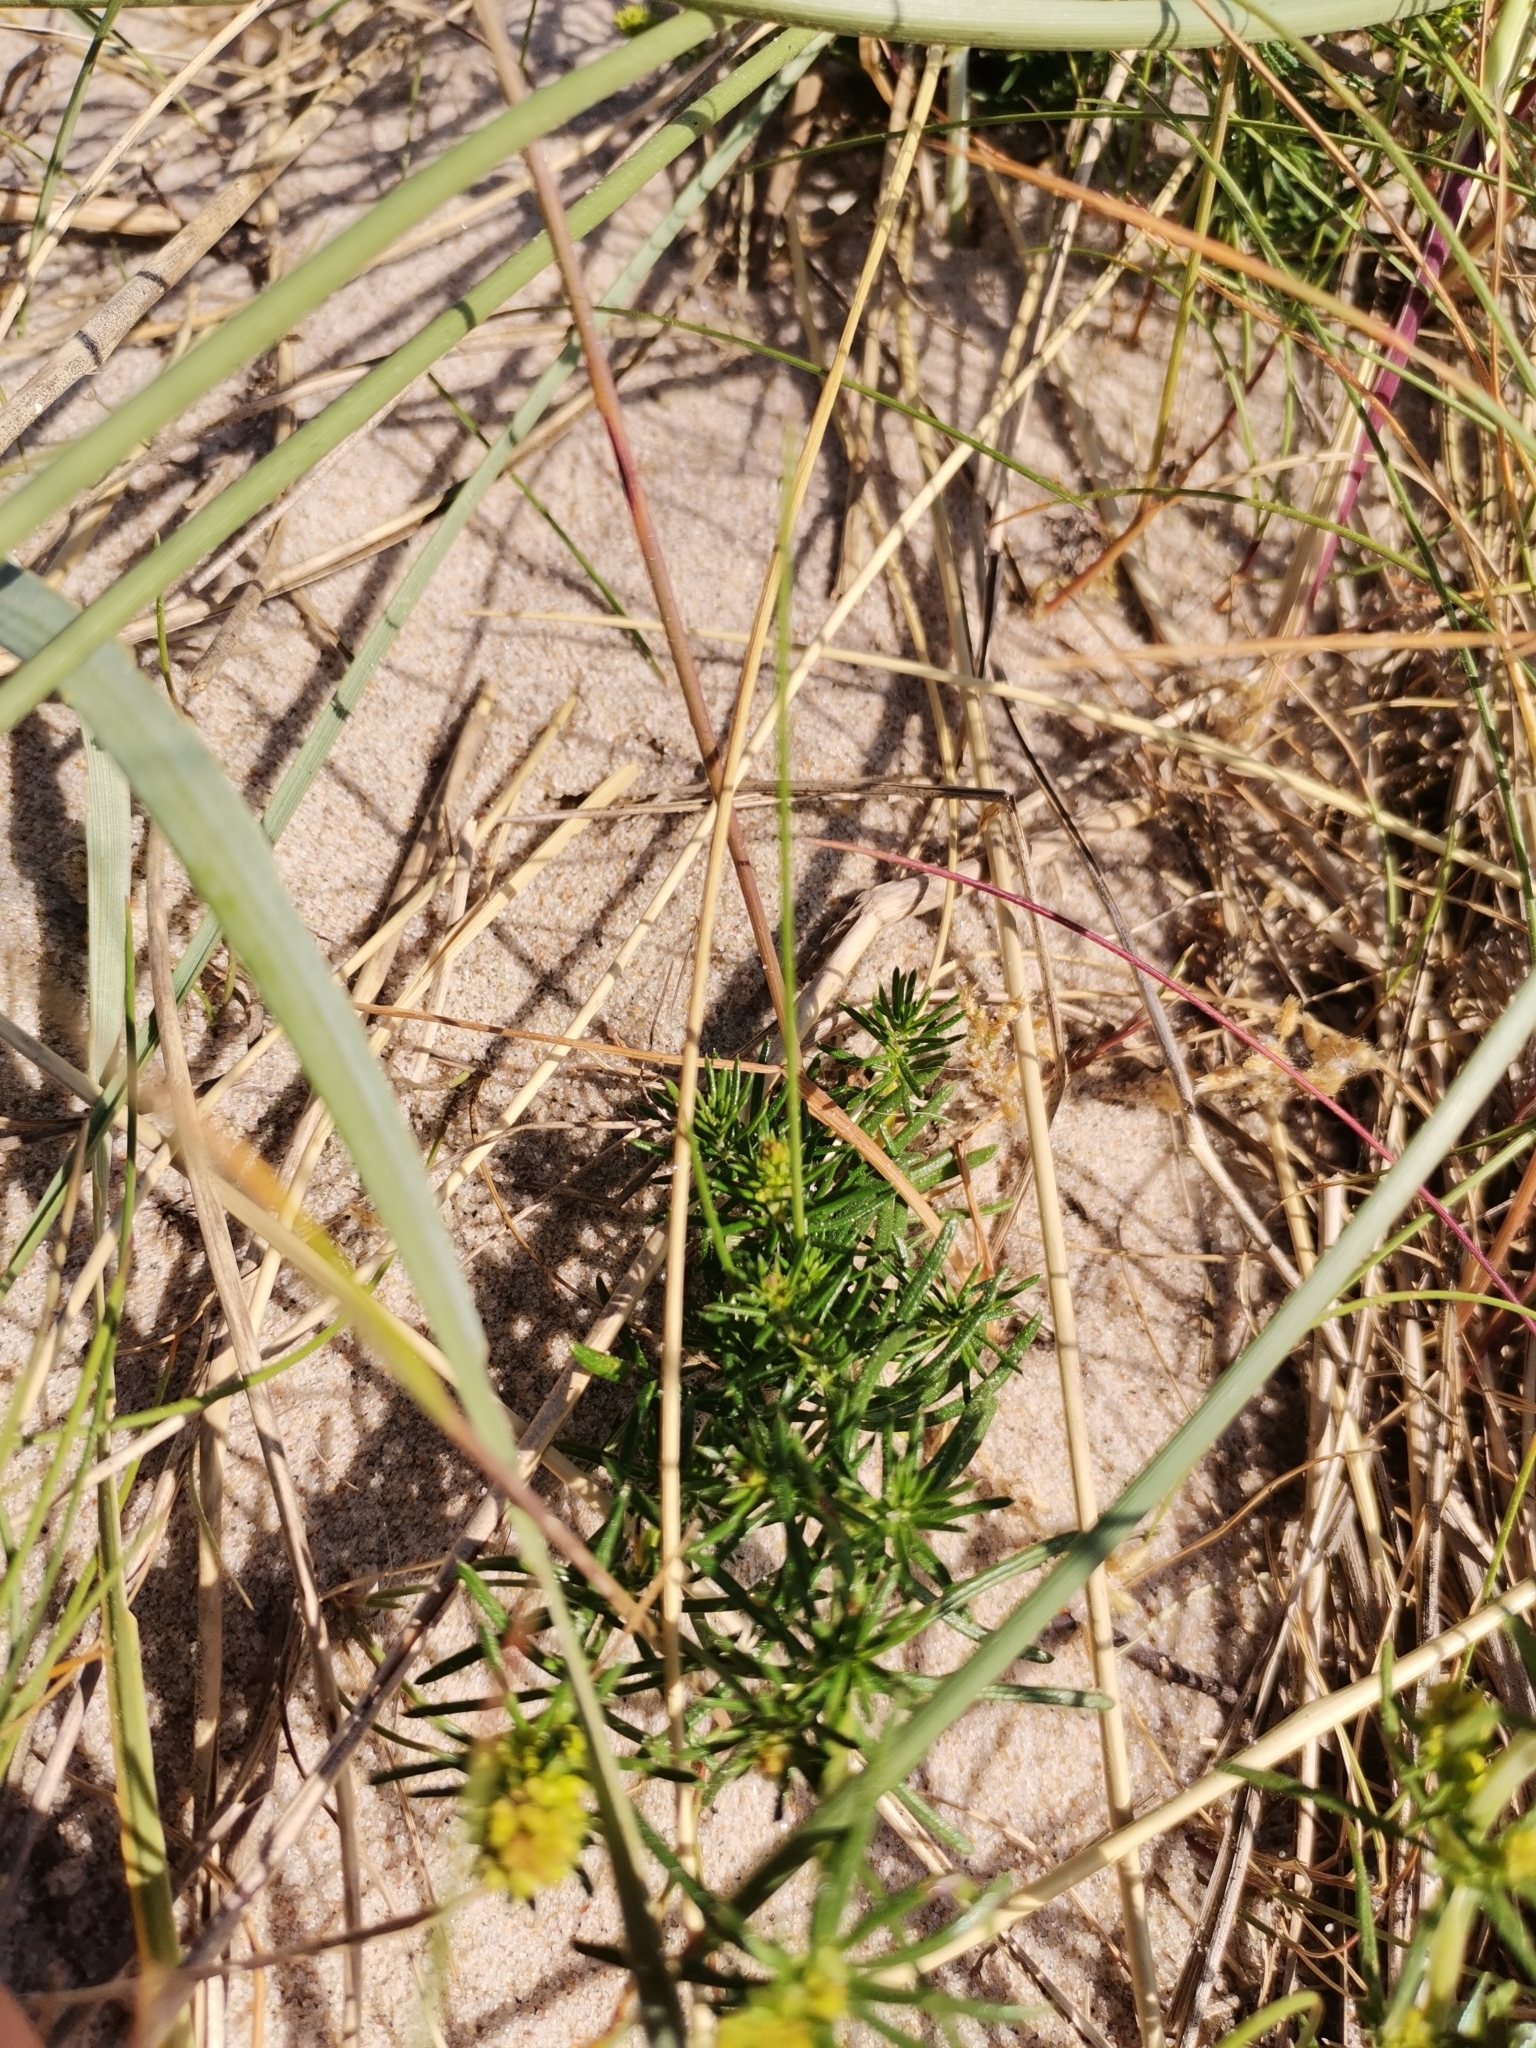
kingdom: Plantae
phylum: Tracheophyta
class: Magnoliopsida
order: Gentianales
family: Rubiaceae
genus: Galium
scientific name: Galium verum
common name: Lady's bedstraw
